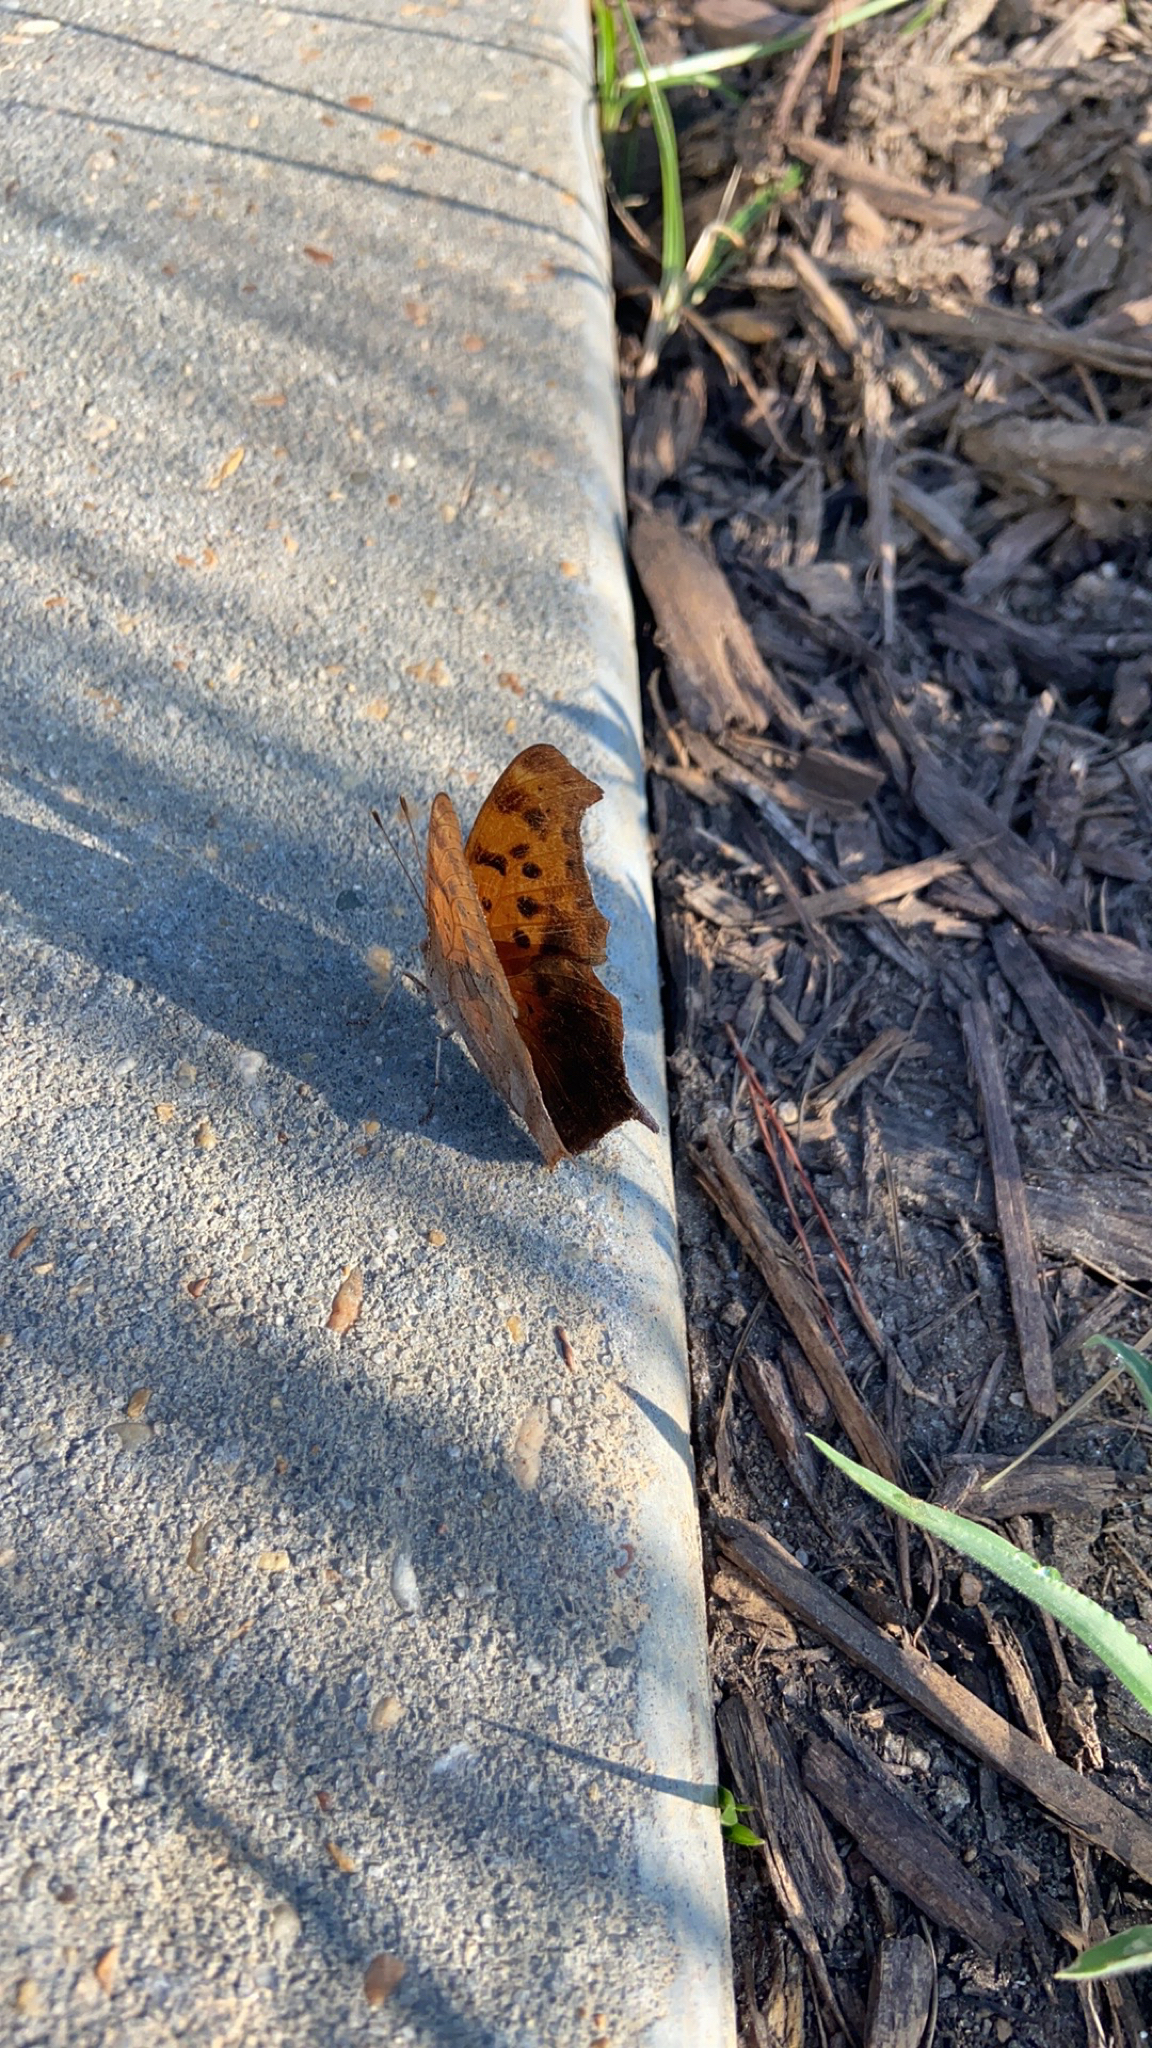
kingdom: Animalia
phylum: Arthropoda
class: Insecta
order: Lepidoptera
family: Nymphalidae
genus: Polygonia
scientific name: Polygonia interrogationis
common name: Question mark
